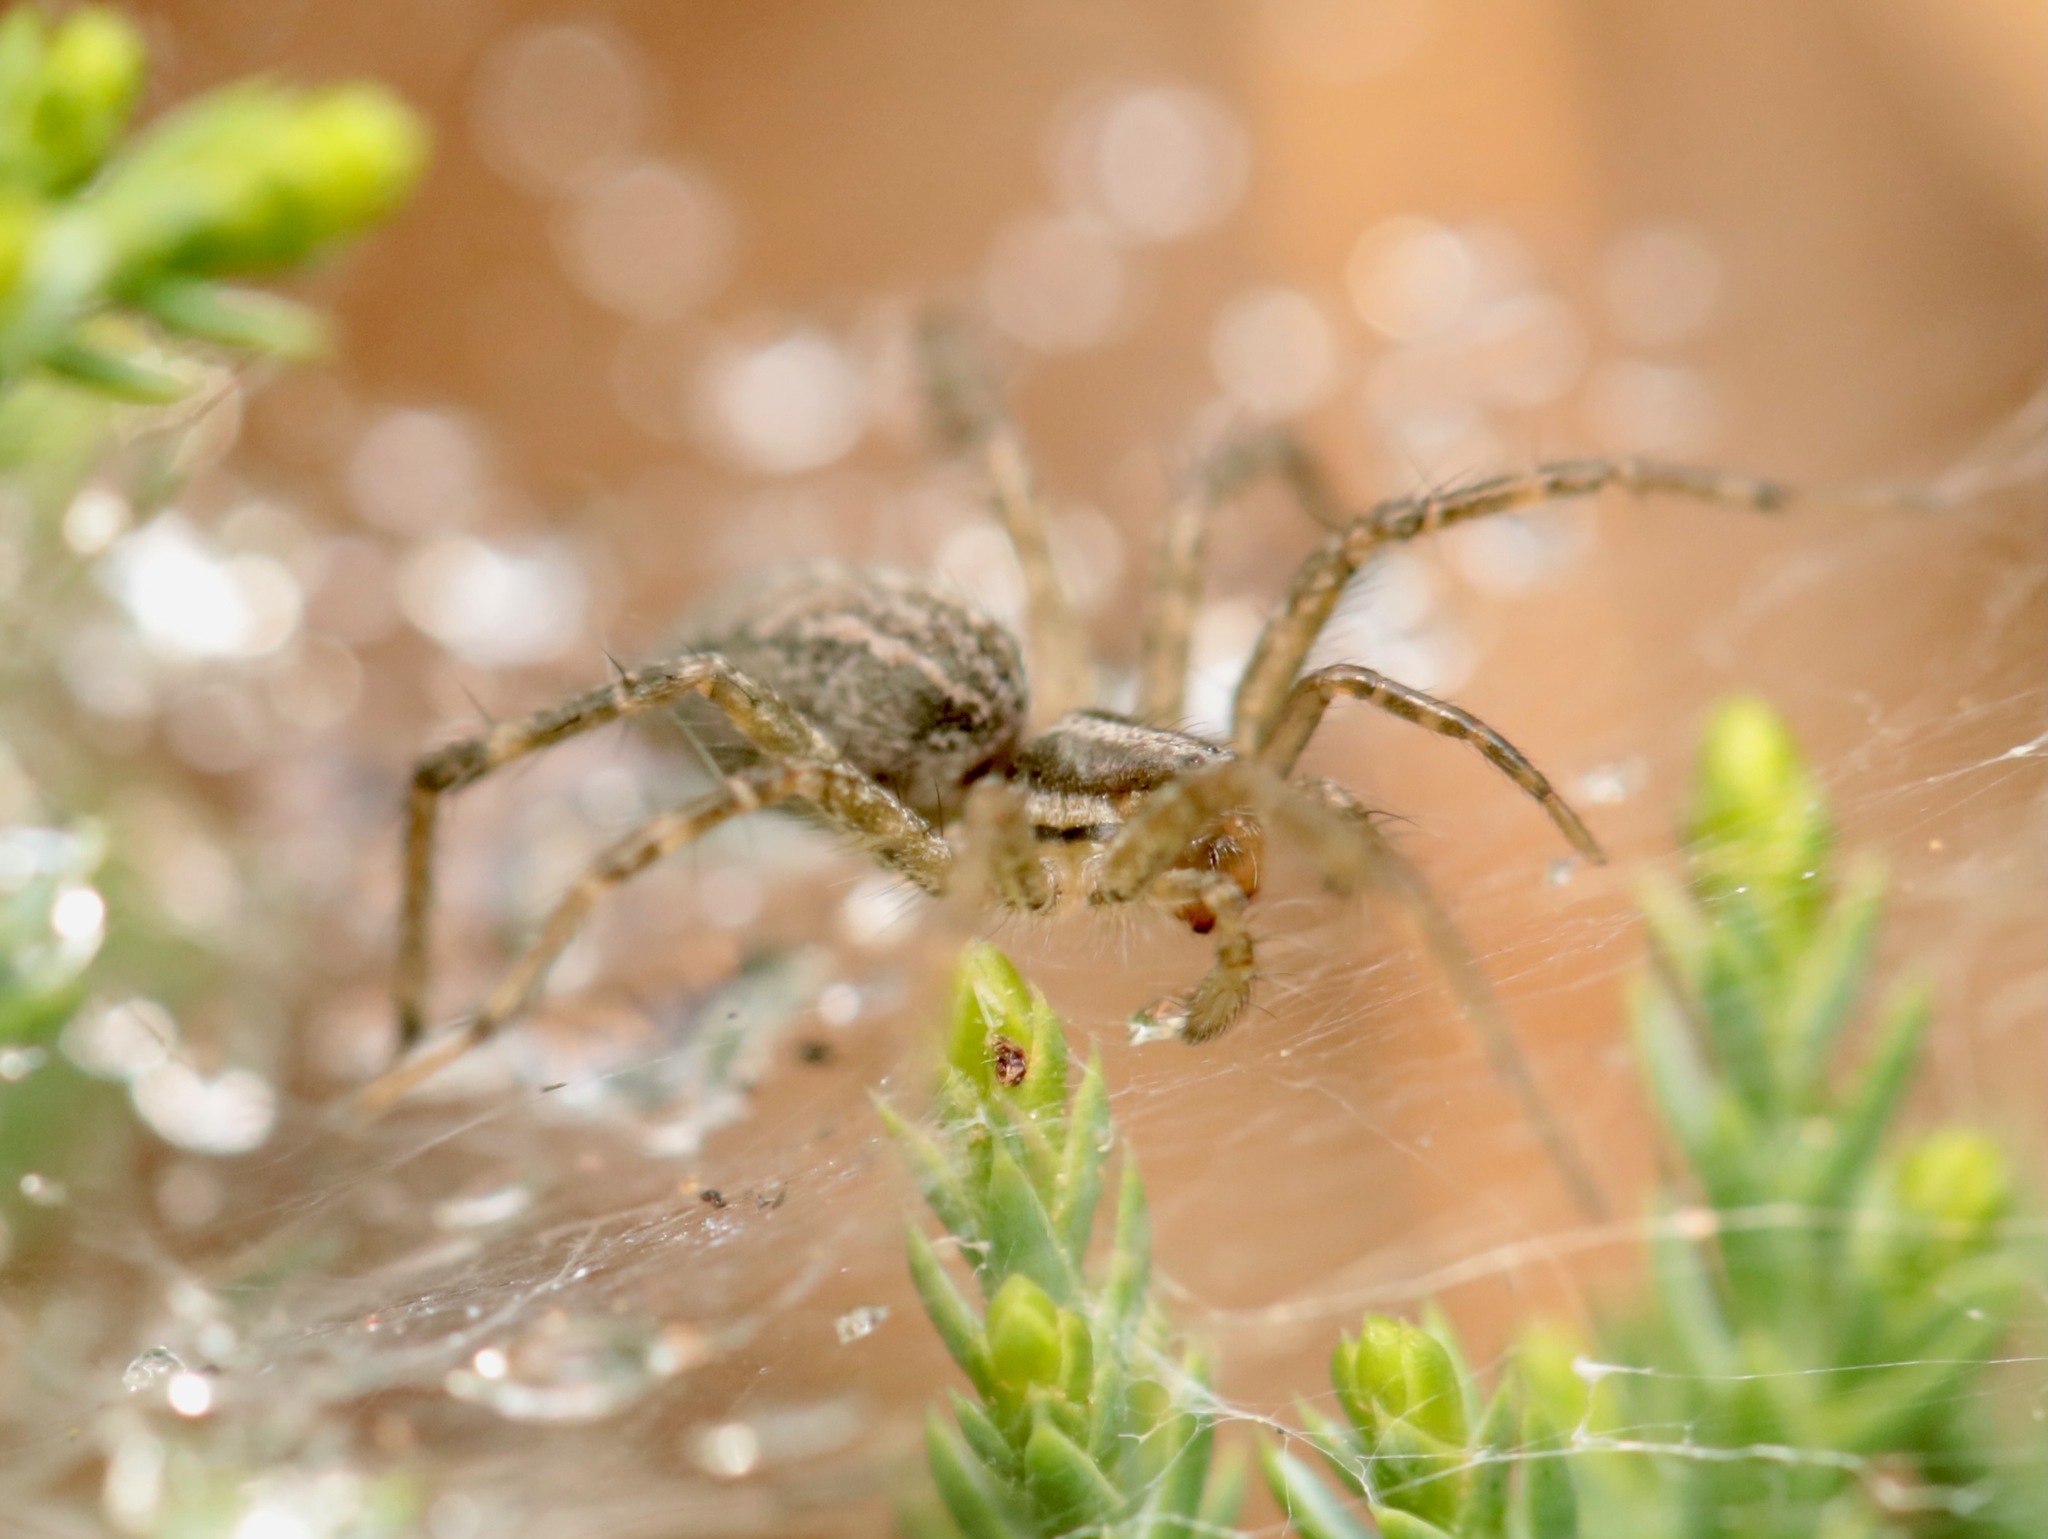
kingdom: Animalia
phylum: Arthropoda
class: Arachnida
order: Araneae
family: Agelenidae
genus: Agelenopsis
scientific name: Agelenopsis
